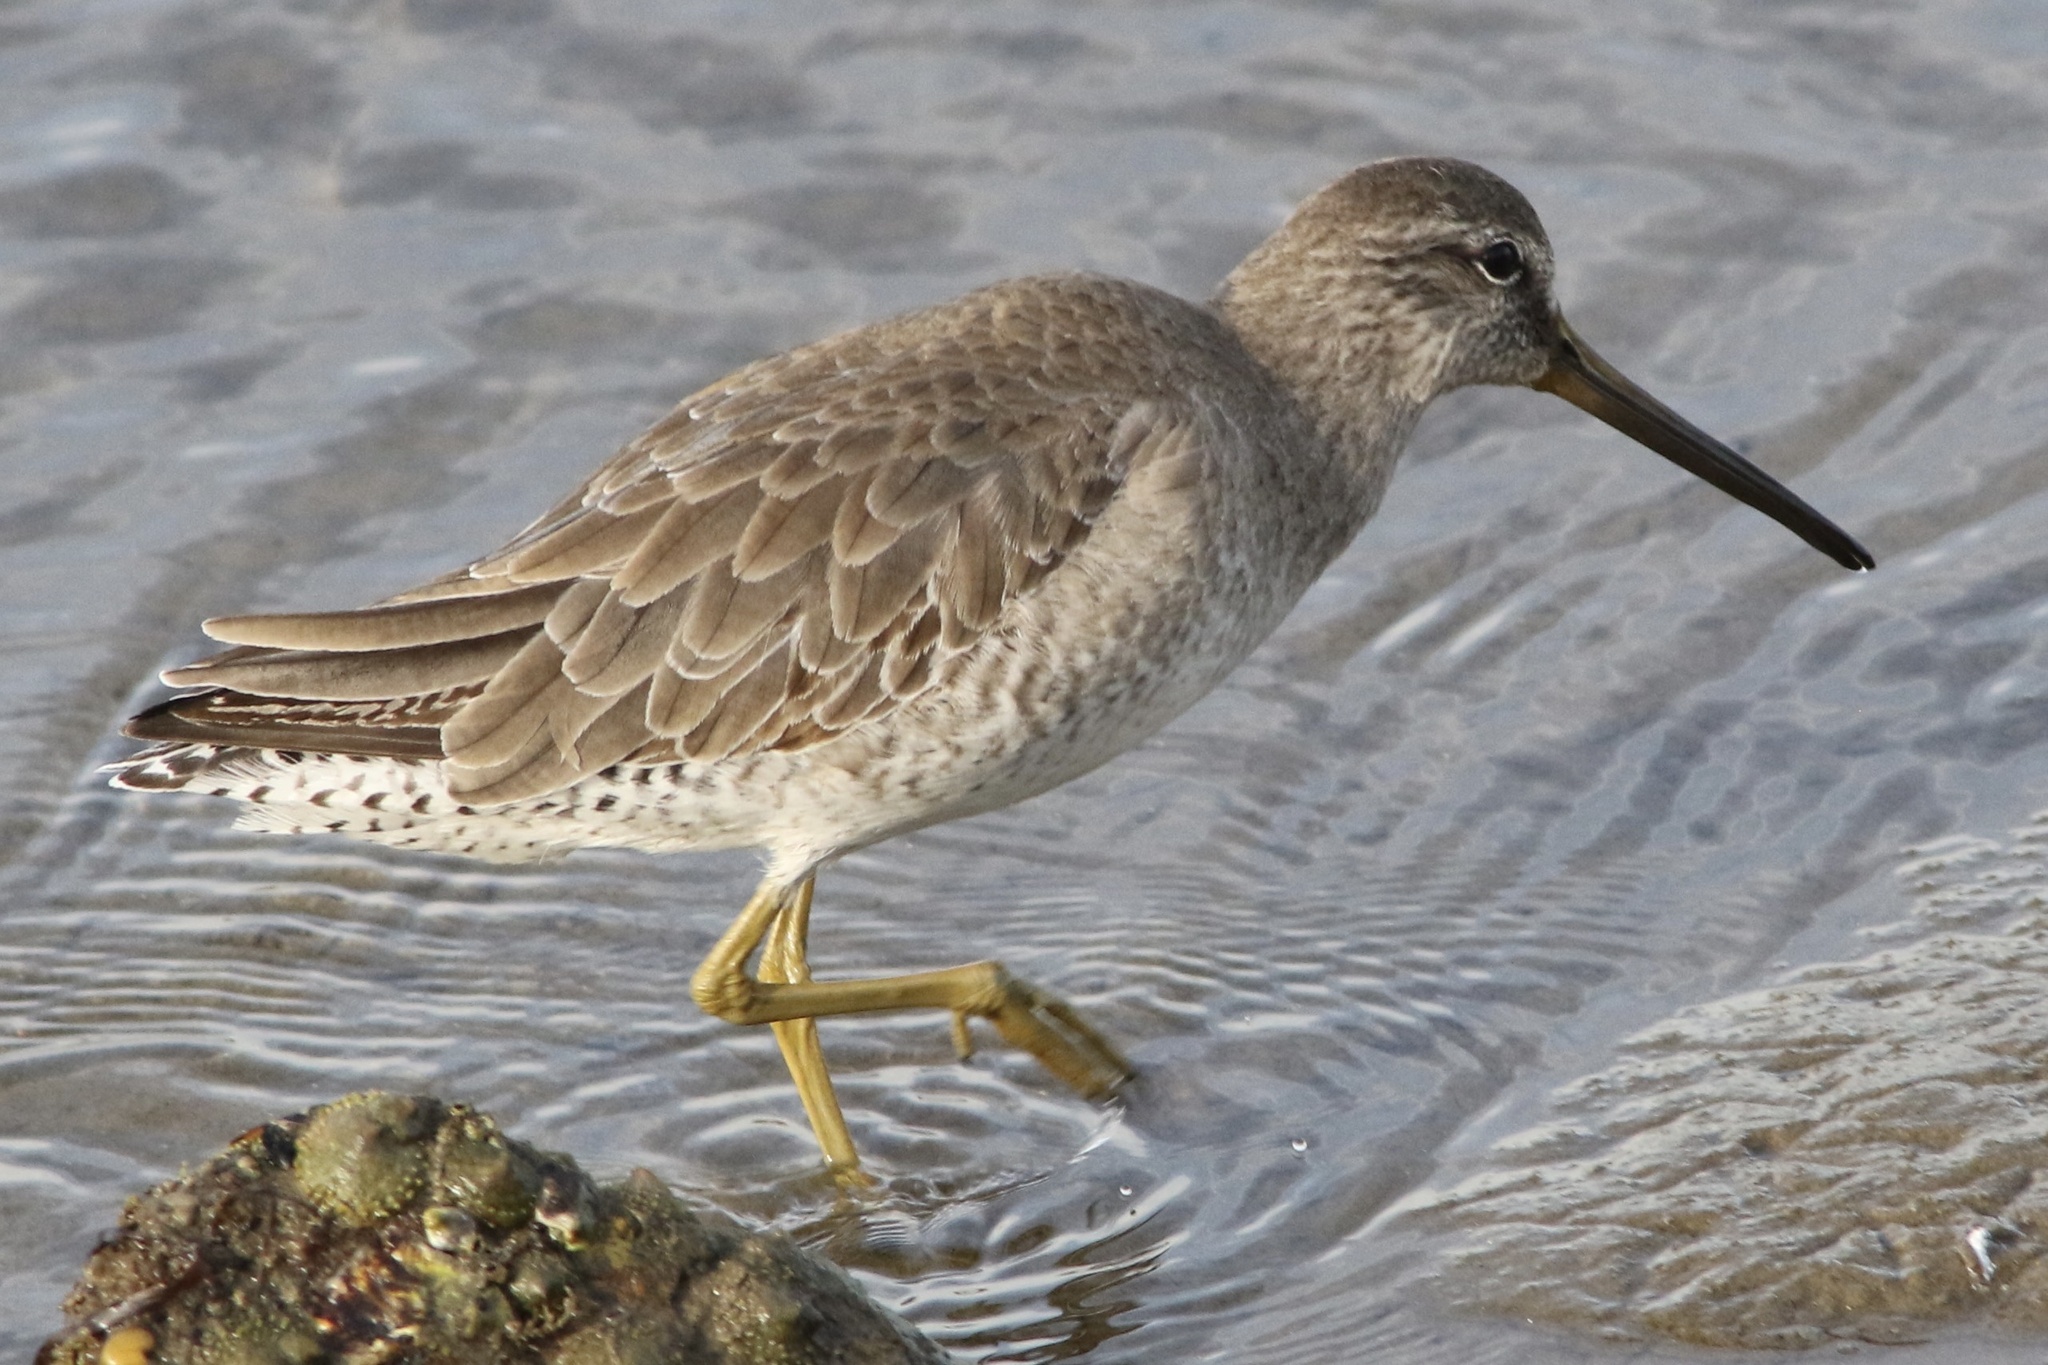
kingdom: Animalia
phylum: Chordata
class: Aves
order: Charadriiformes
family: Scolopacidae
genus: Limnodromus
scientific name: Limnodromus griseus
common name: Short-billed dowitcher
